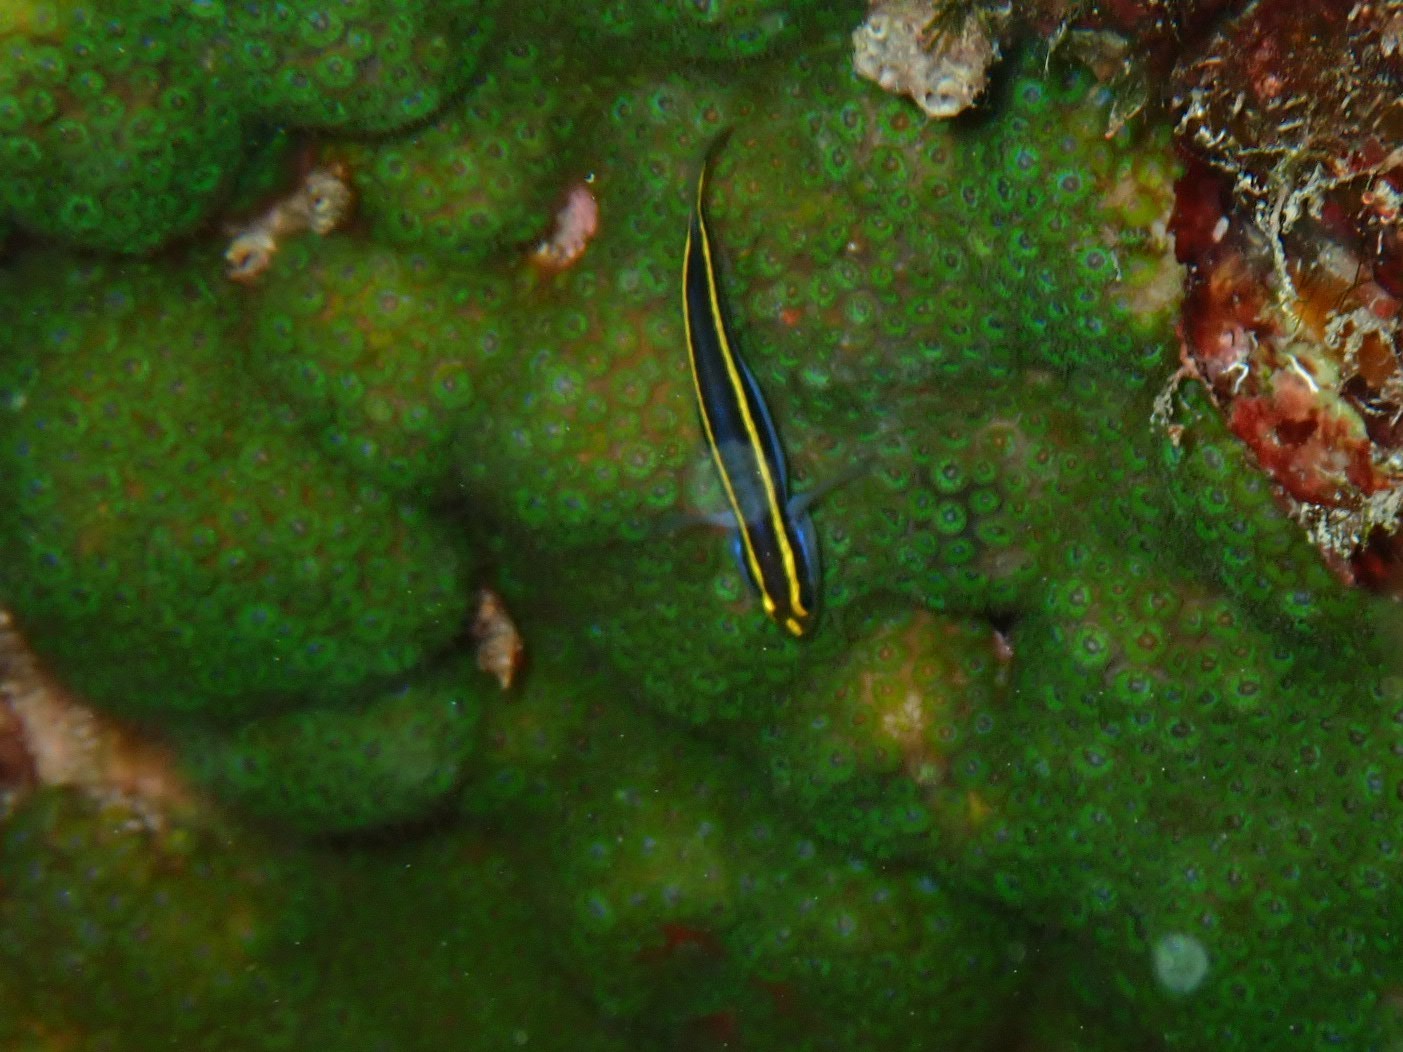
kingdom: Animalia
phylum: Chordata
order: Perciformes
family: Gobiidae
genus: Elacatinus
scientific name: Elacatinus randalli
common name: Yellownose goby
